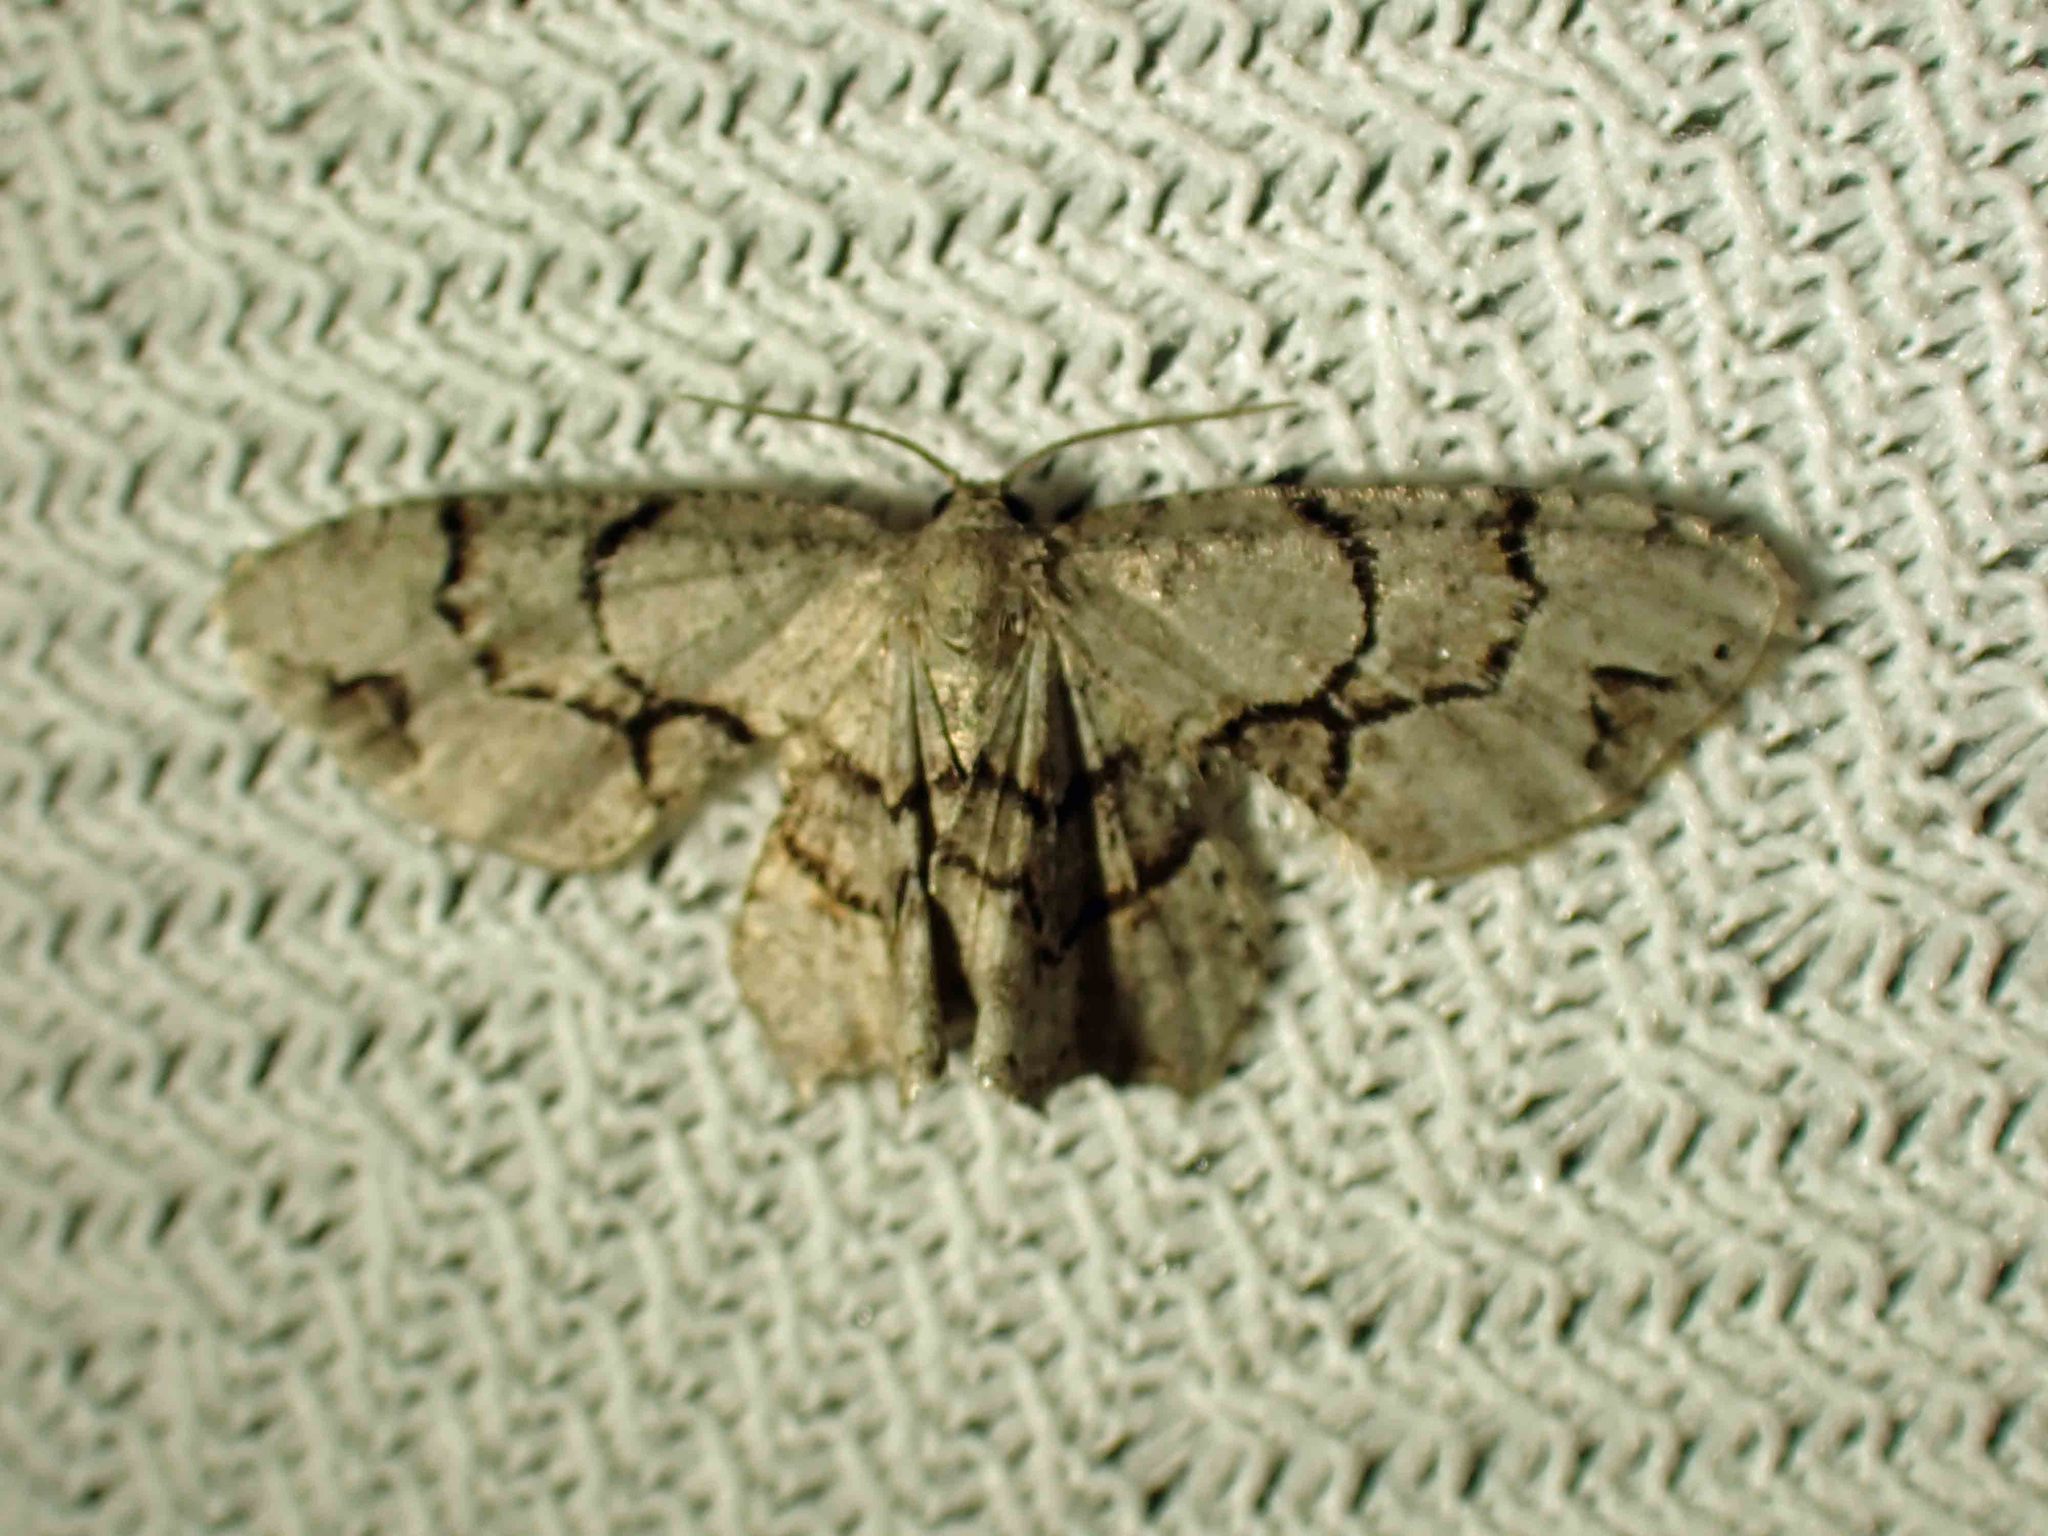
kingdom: Animalia
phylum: Arthropoda
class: Insecta
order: Lepidoptera
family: Uraniidae
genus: Epiplema
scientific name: Epiplema Callizzia amorata
